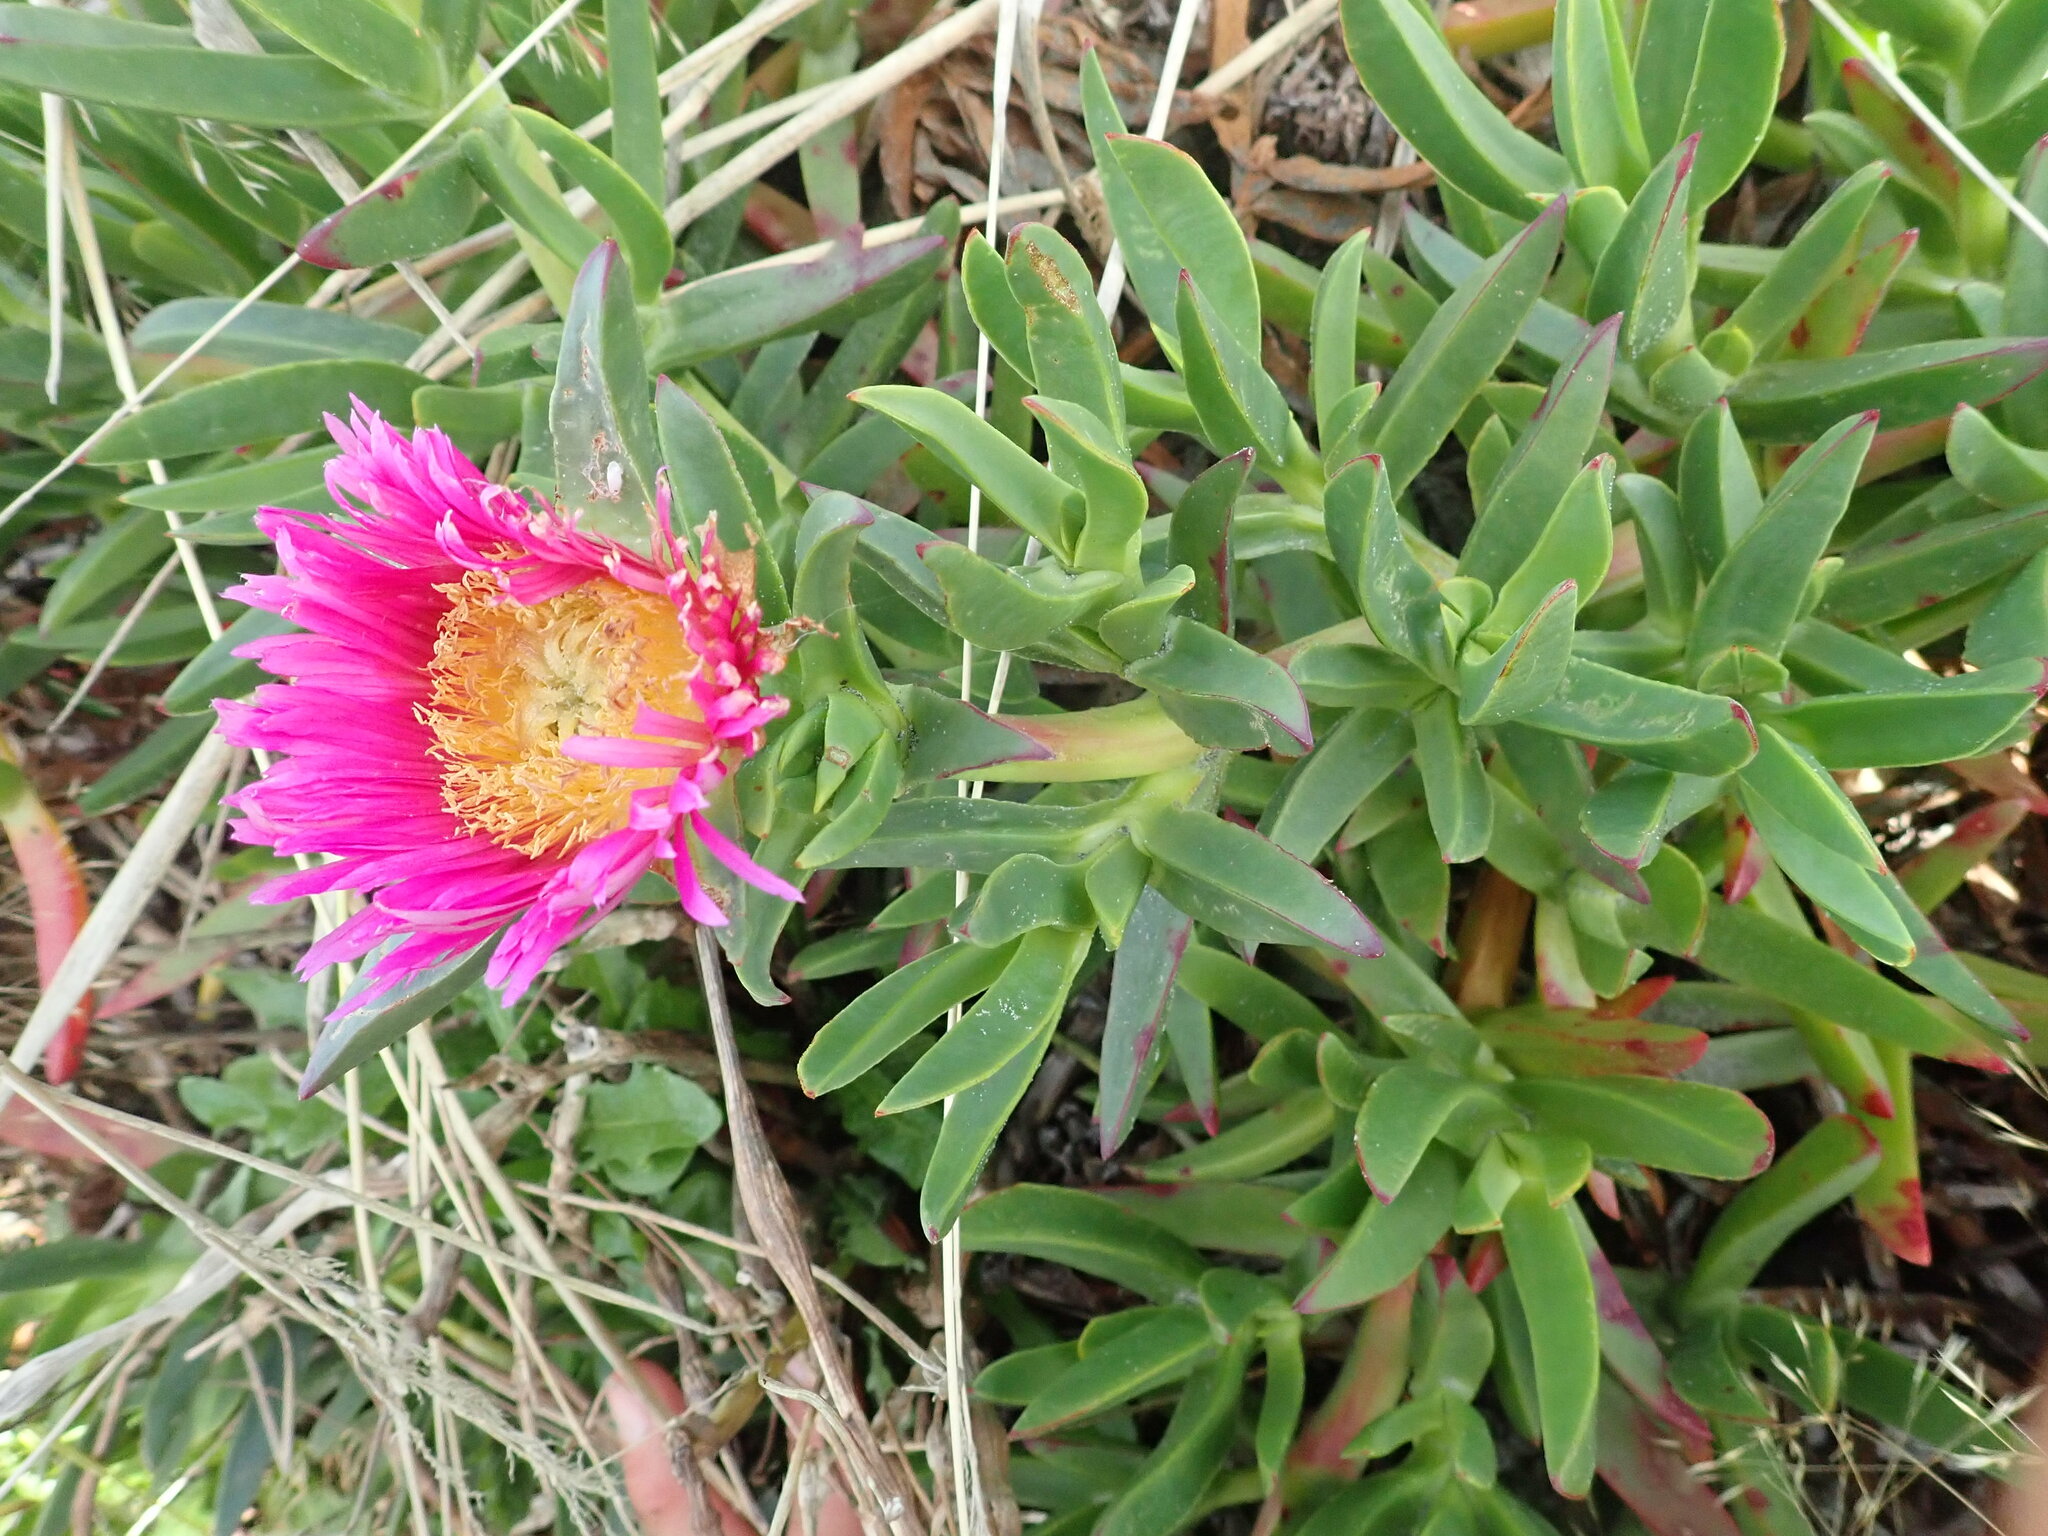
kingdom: Plantae
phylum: Tracheophyta
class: Magnoliopsida
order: Caryophyllales
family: Aizoaceae
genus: Carpobrotus
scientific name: Carpobrotus chilensis
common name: Sea fig
